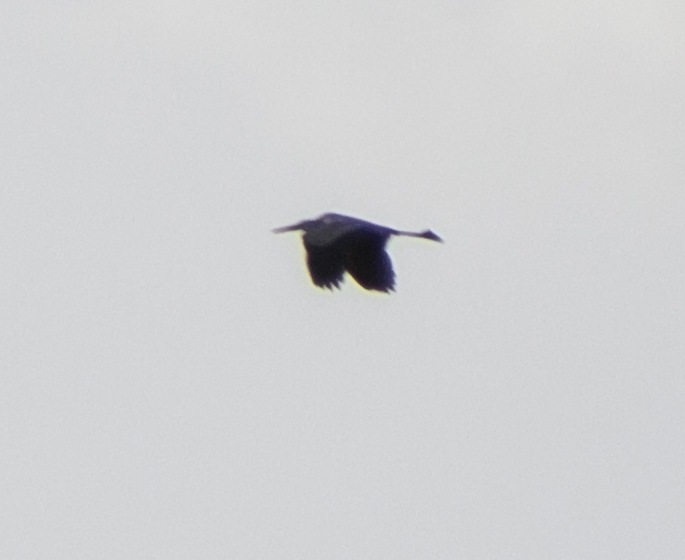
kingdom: Animalia
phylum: Chordata
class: Aves
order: Pelecaniformes
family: Ardeidae
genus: Ardea
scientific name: Ardea herodias
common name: Great blue heron
